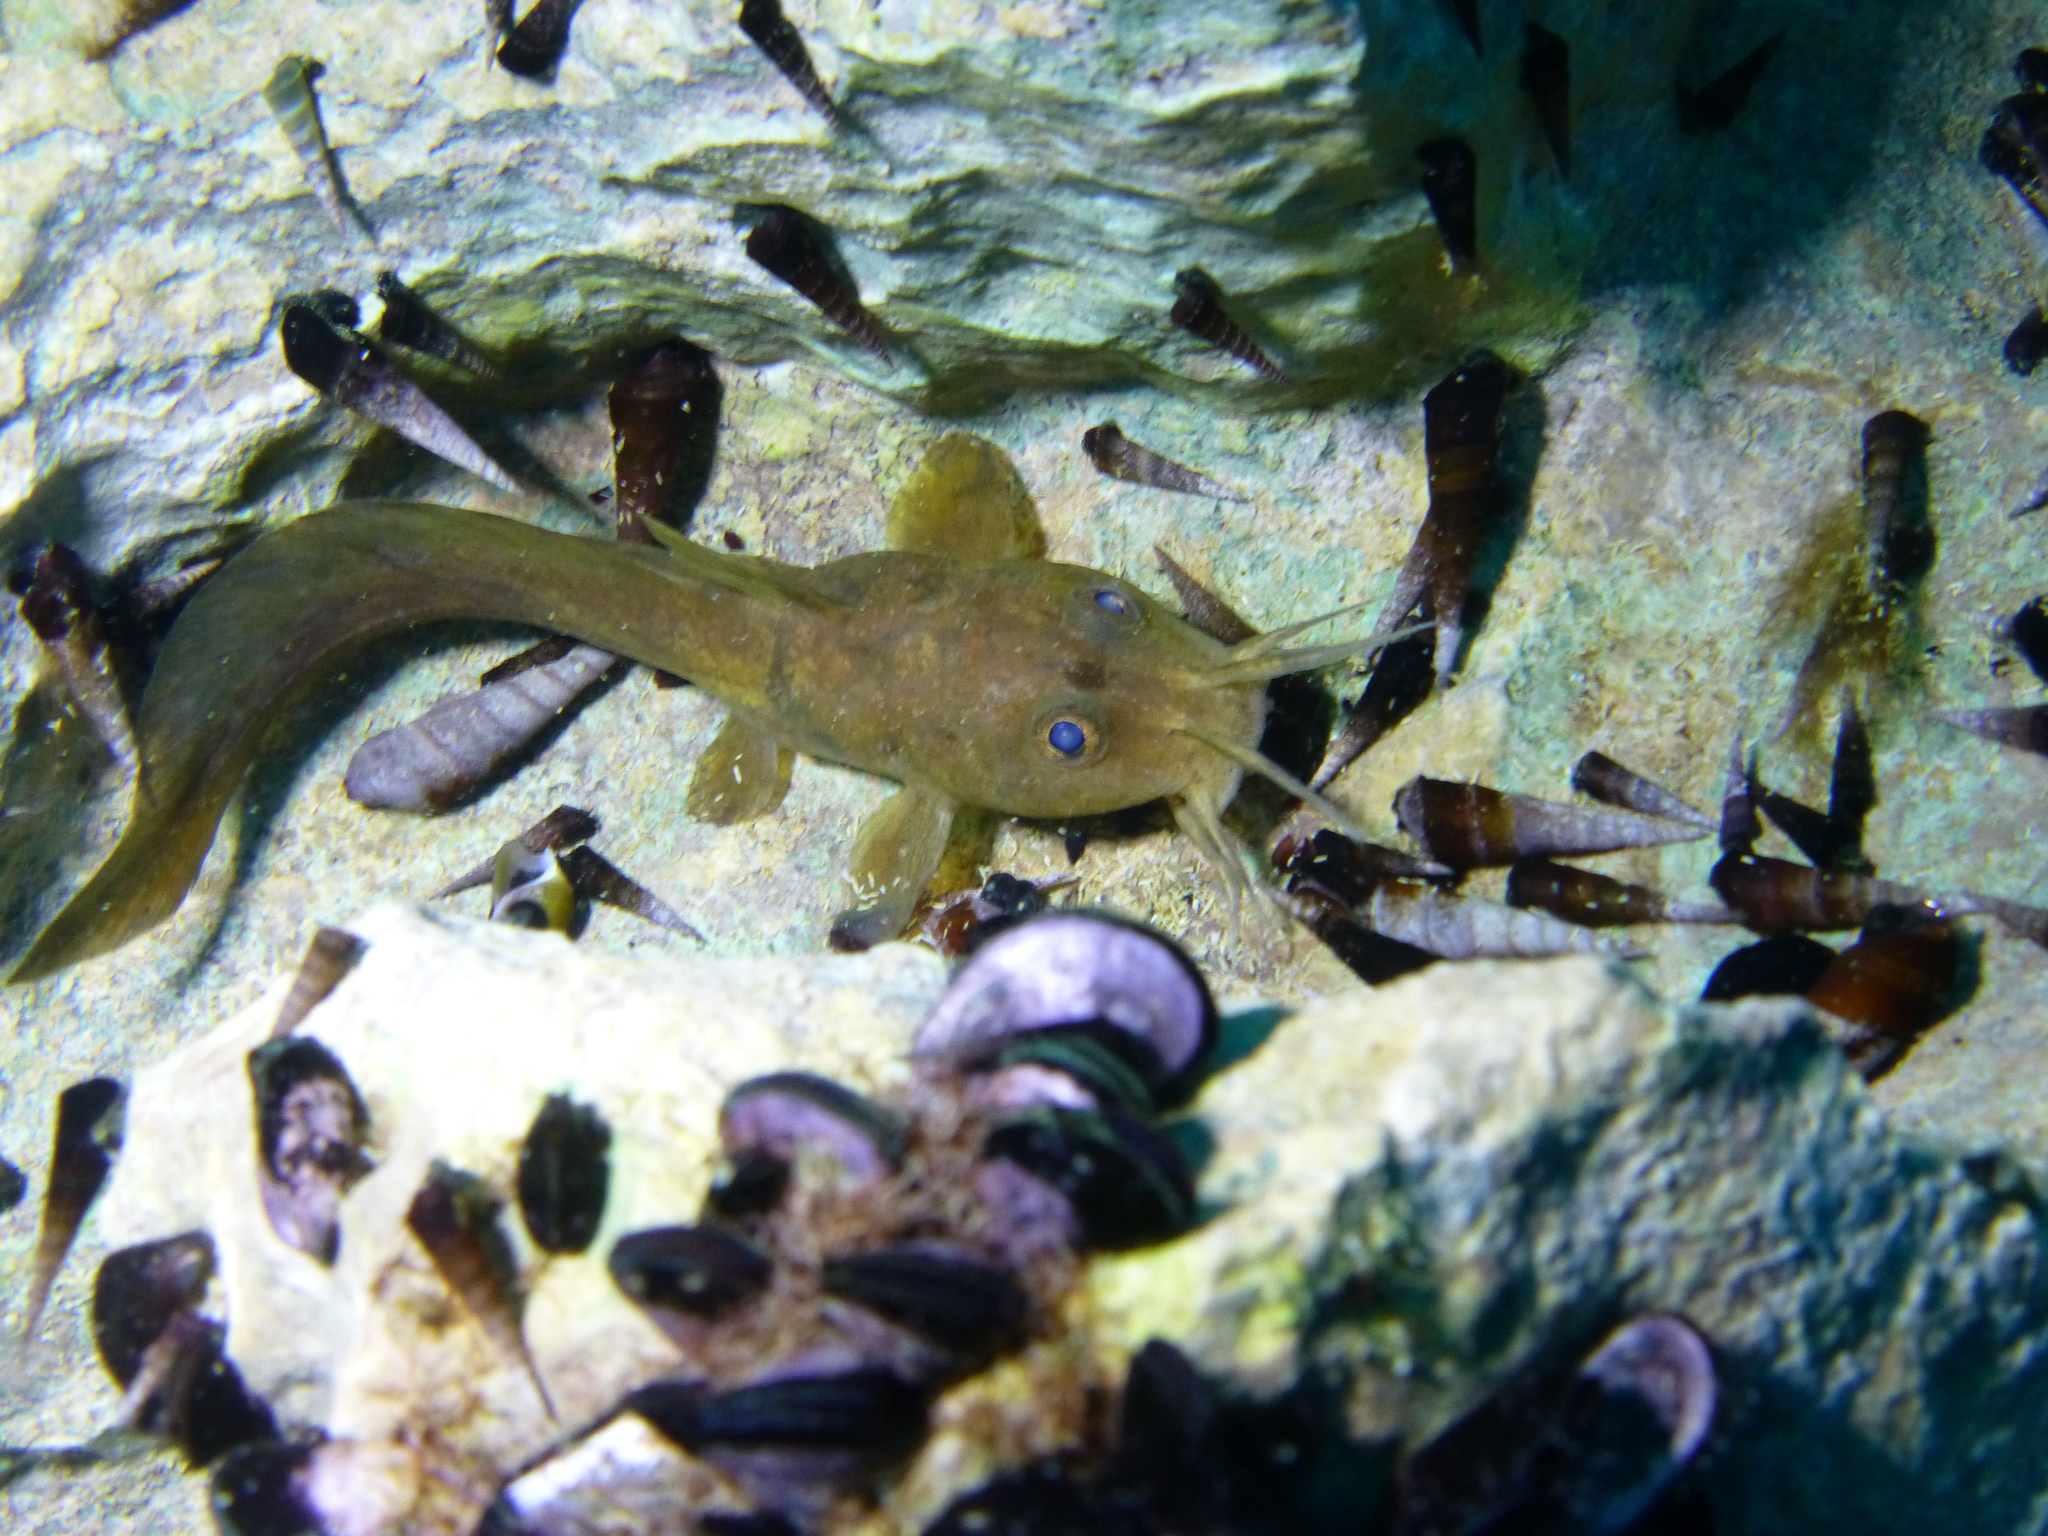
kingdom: Animalia
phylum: Chordata
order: Siluriformes
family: Plotosidae
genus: Paraplotosus
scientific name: Paraplotosus albilabris
